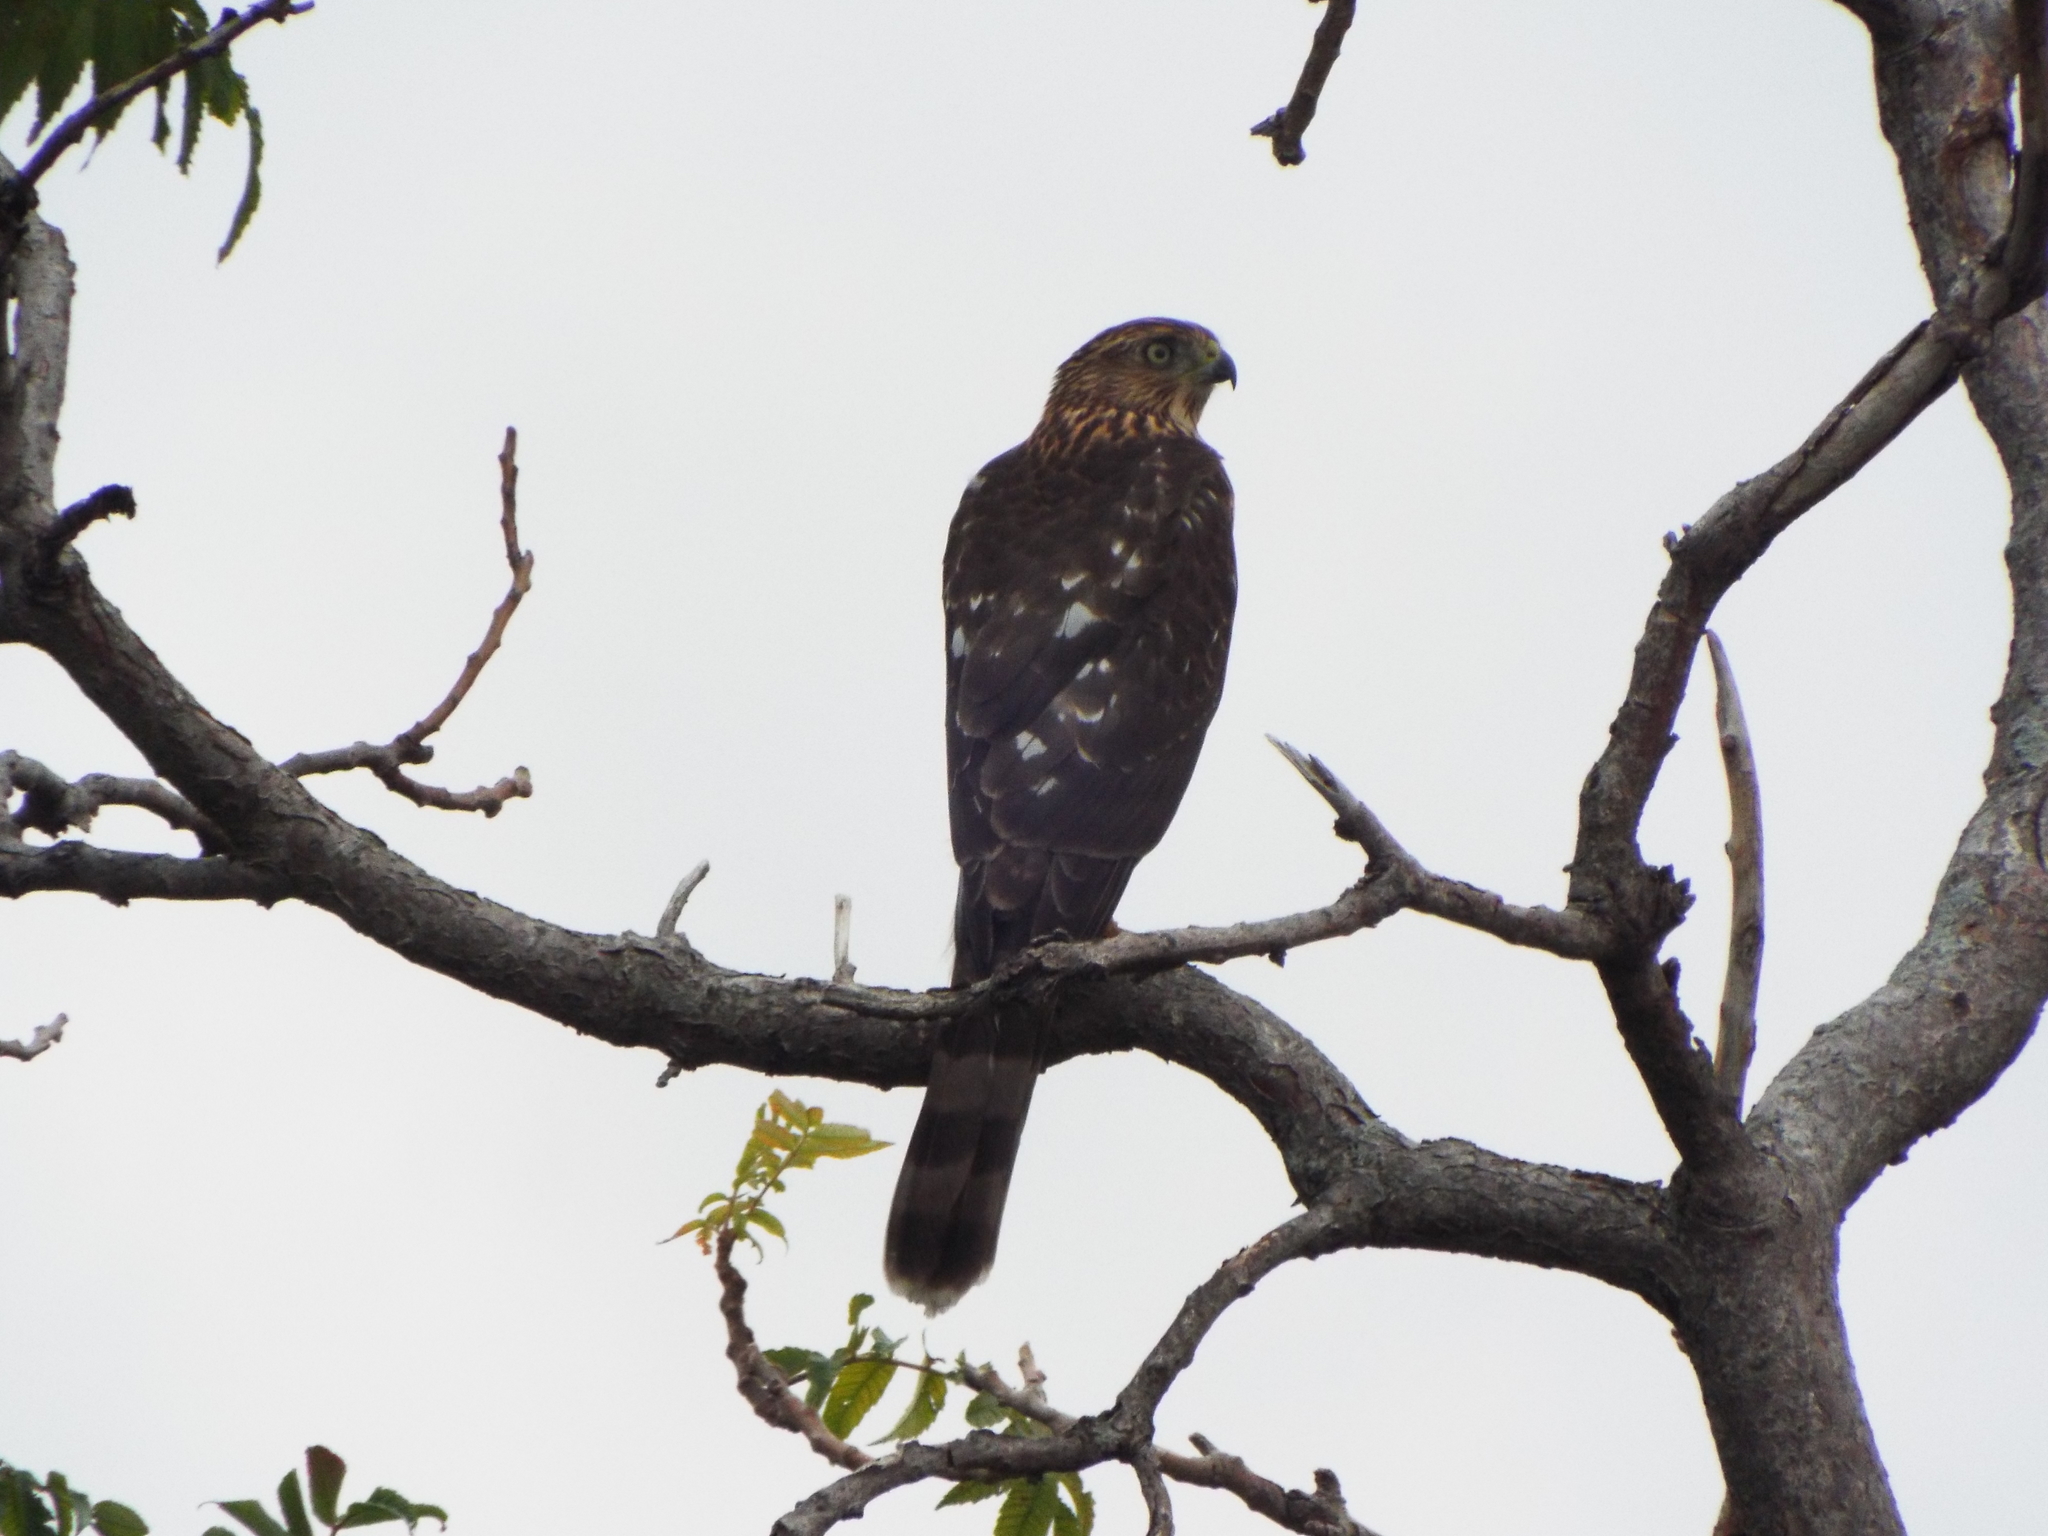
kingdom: Animalia
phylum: Chordata
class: Aves
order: Accipitriformes
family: Accipitridae
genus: Accipiter
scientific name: Accipiter cooperii
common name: Cooper's hawk
